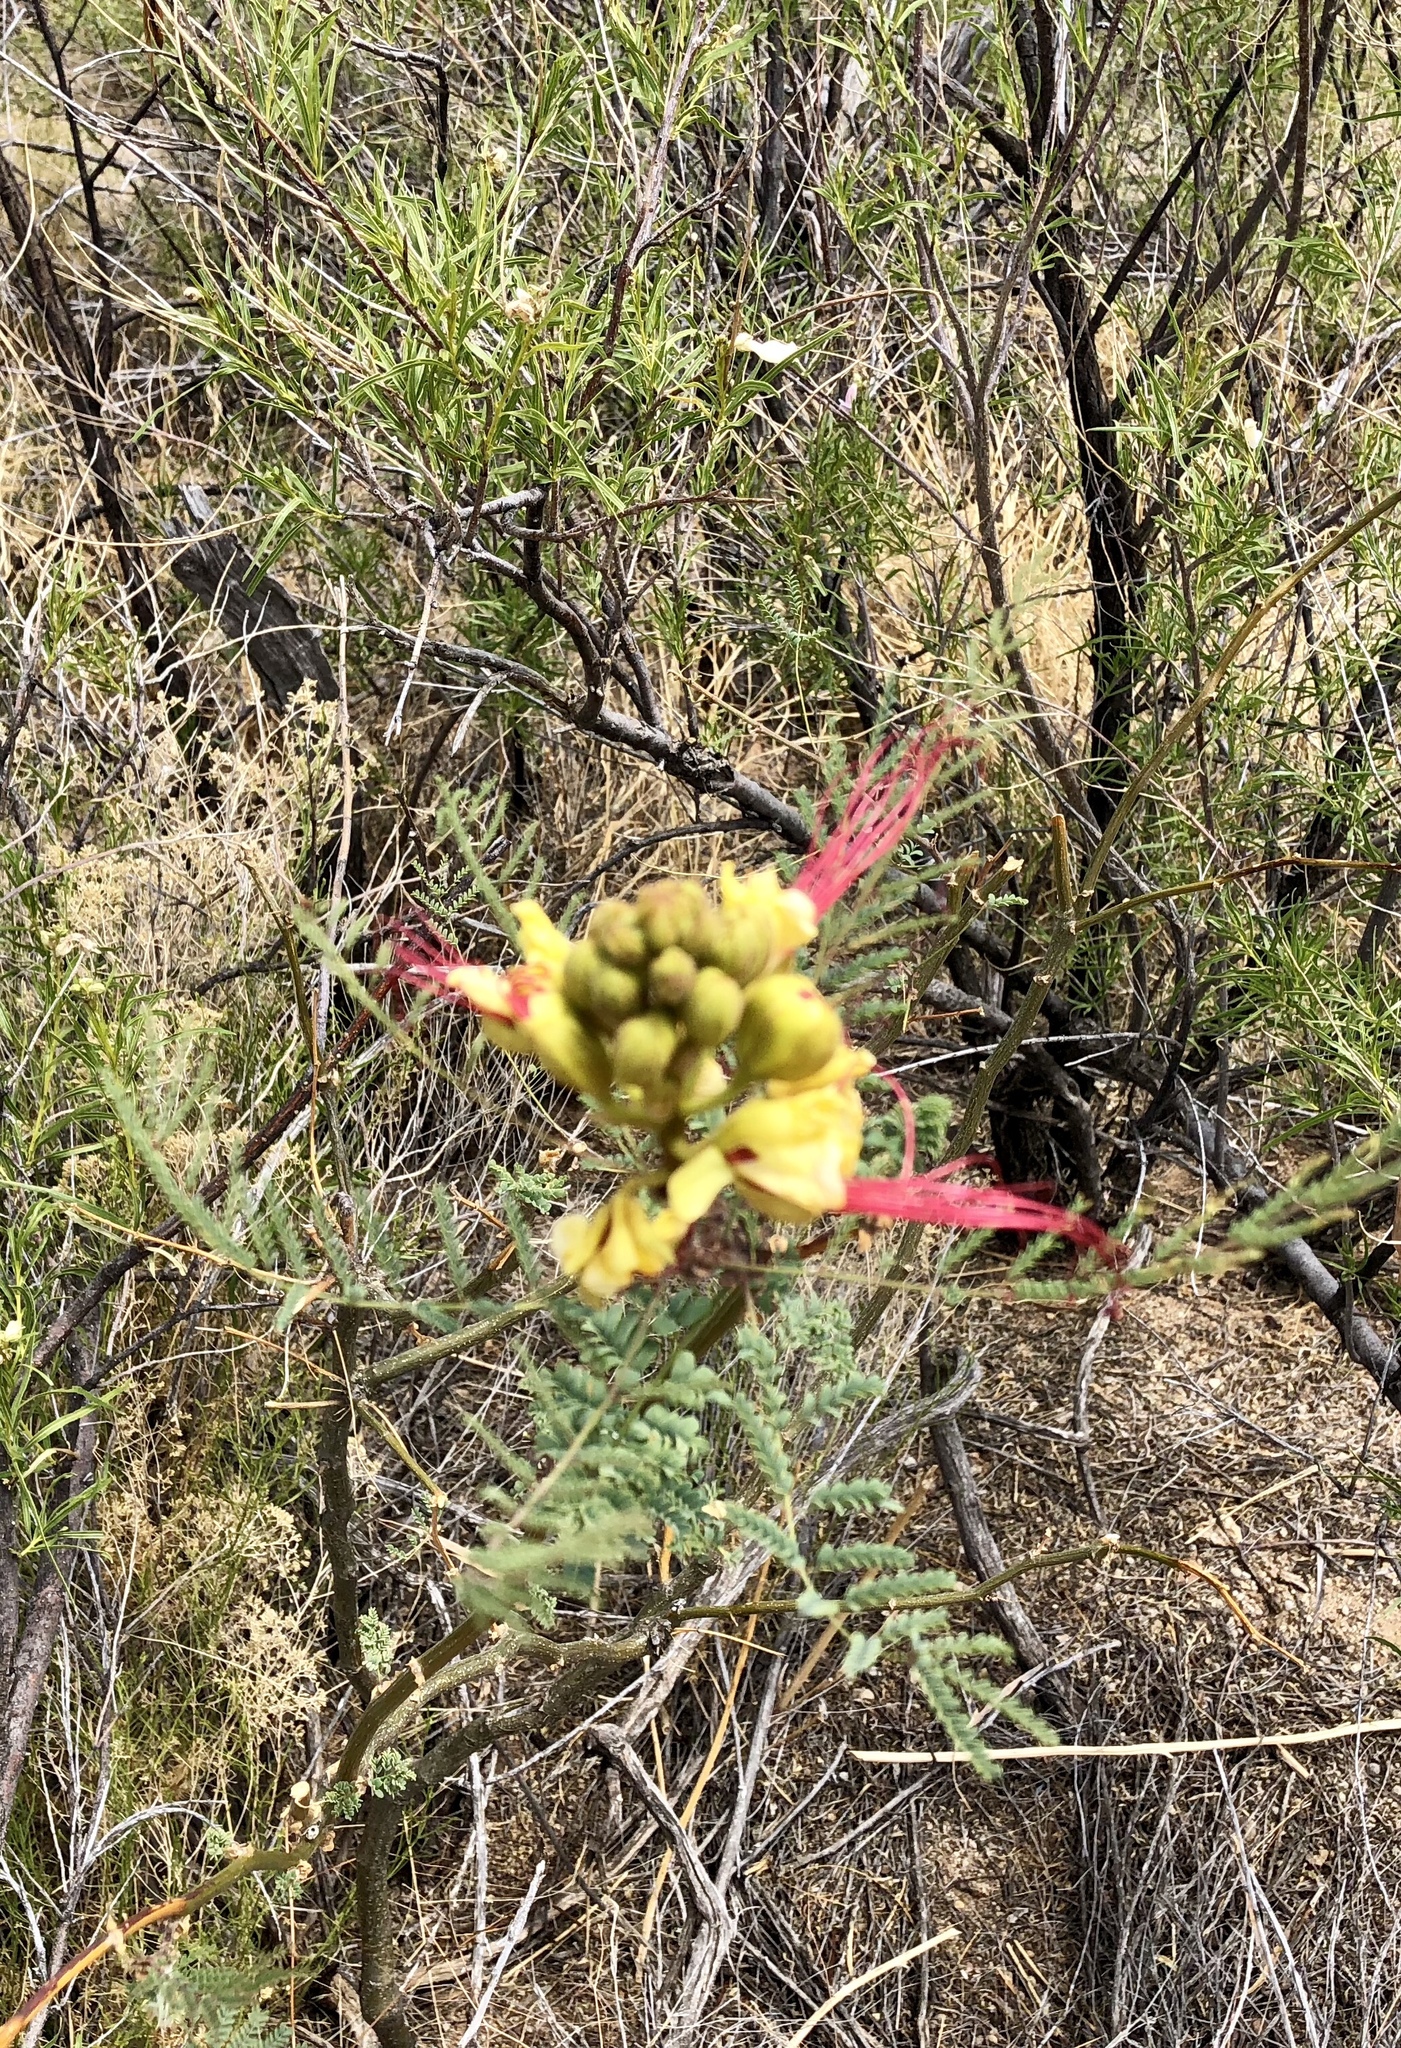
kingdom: Plantae
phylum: Tracheophyta
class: Magnoliopsida
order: Fabales
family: Fabaceae
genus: Erythrostemon
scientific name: Erythrostemon gilliesii
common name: Bird-of-paradise shrub
